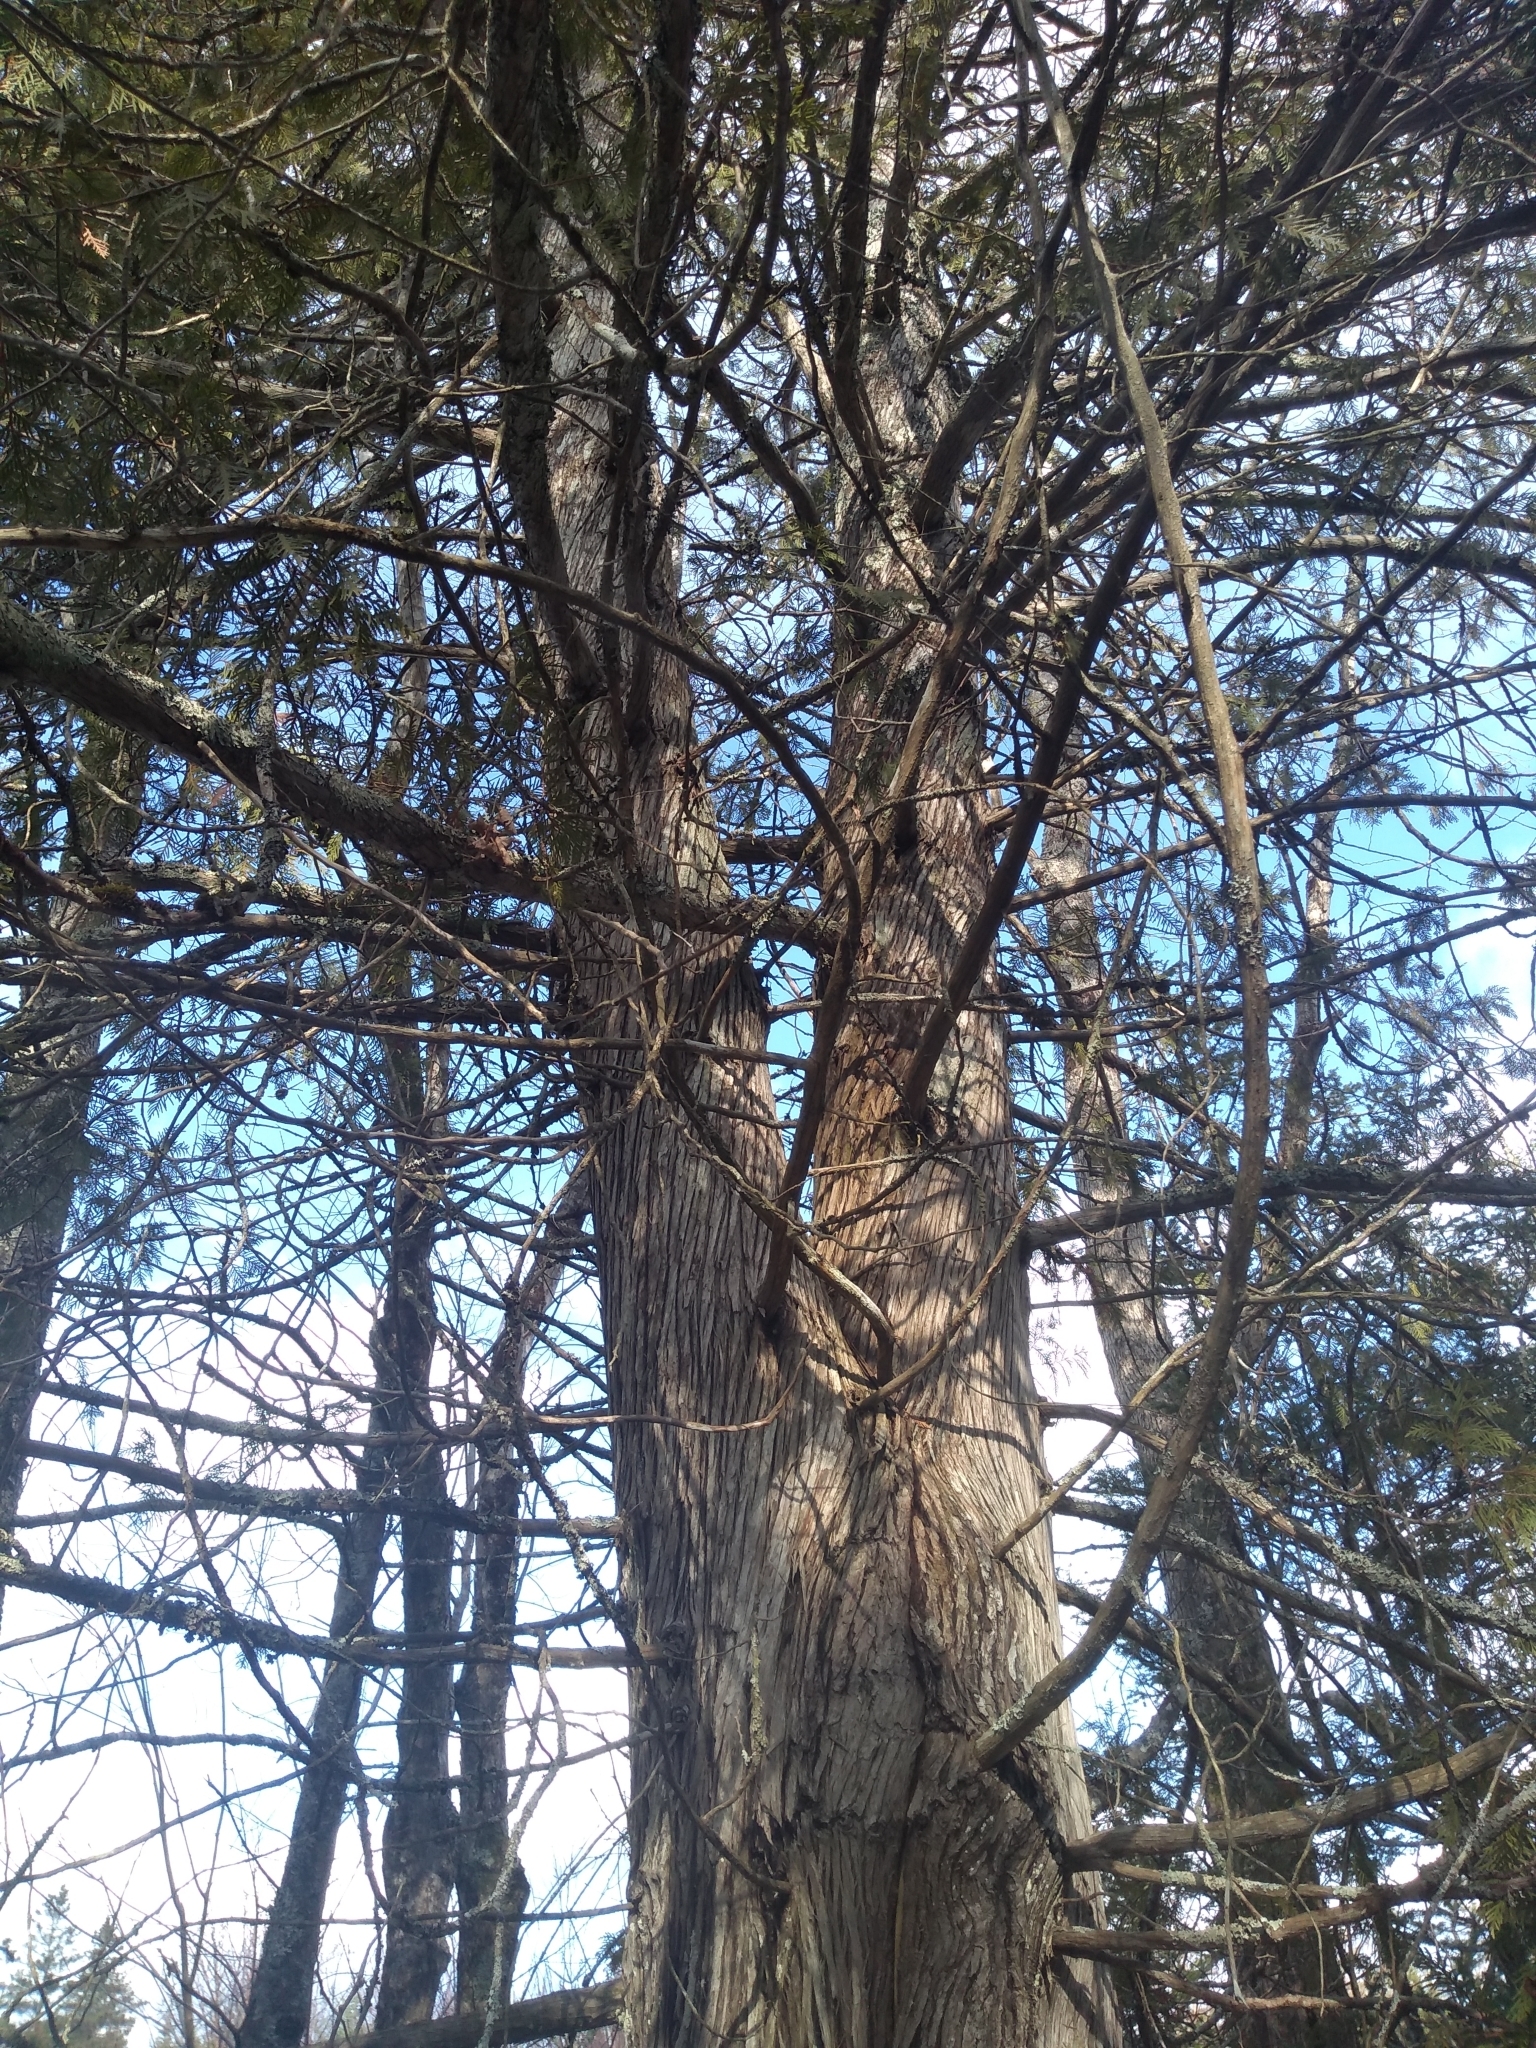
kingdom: Plantae
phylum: Tracheophyta
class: Pinopsida
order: Pinales
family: Cupressaceae
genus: Thuja
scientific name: Thuja occidentalis
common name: Northern white-cedar
